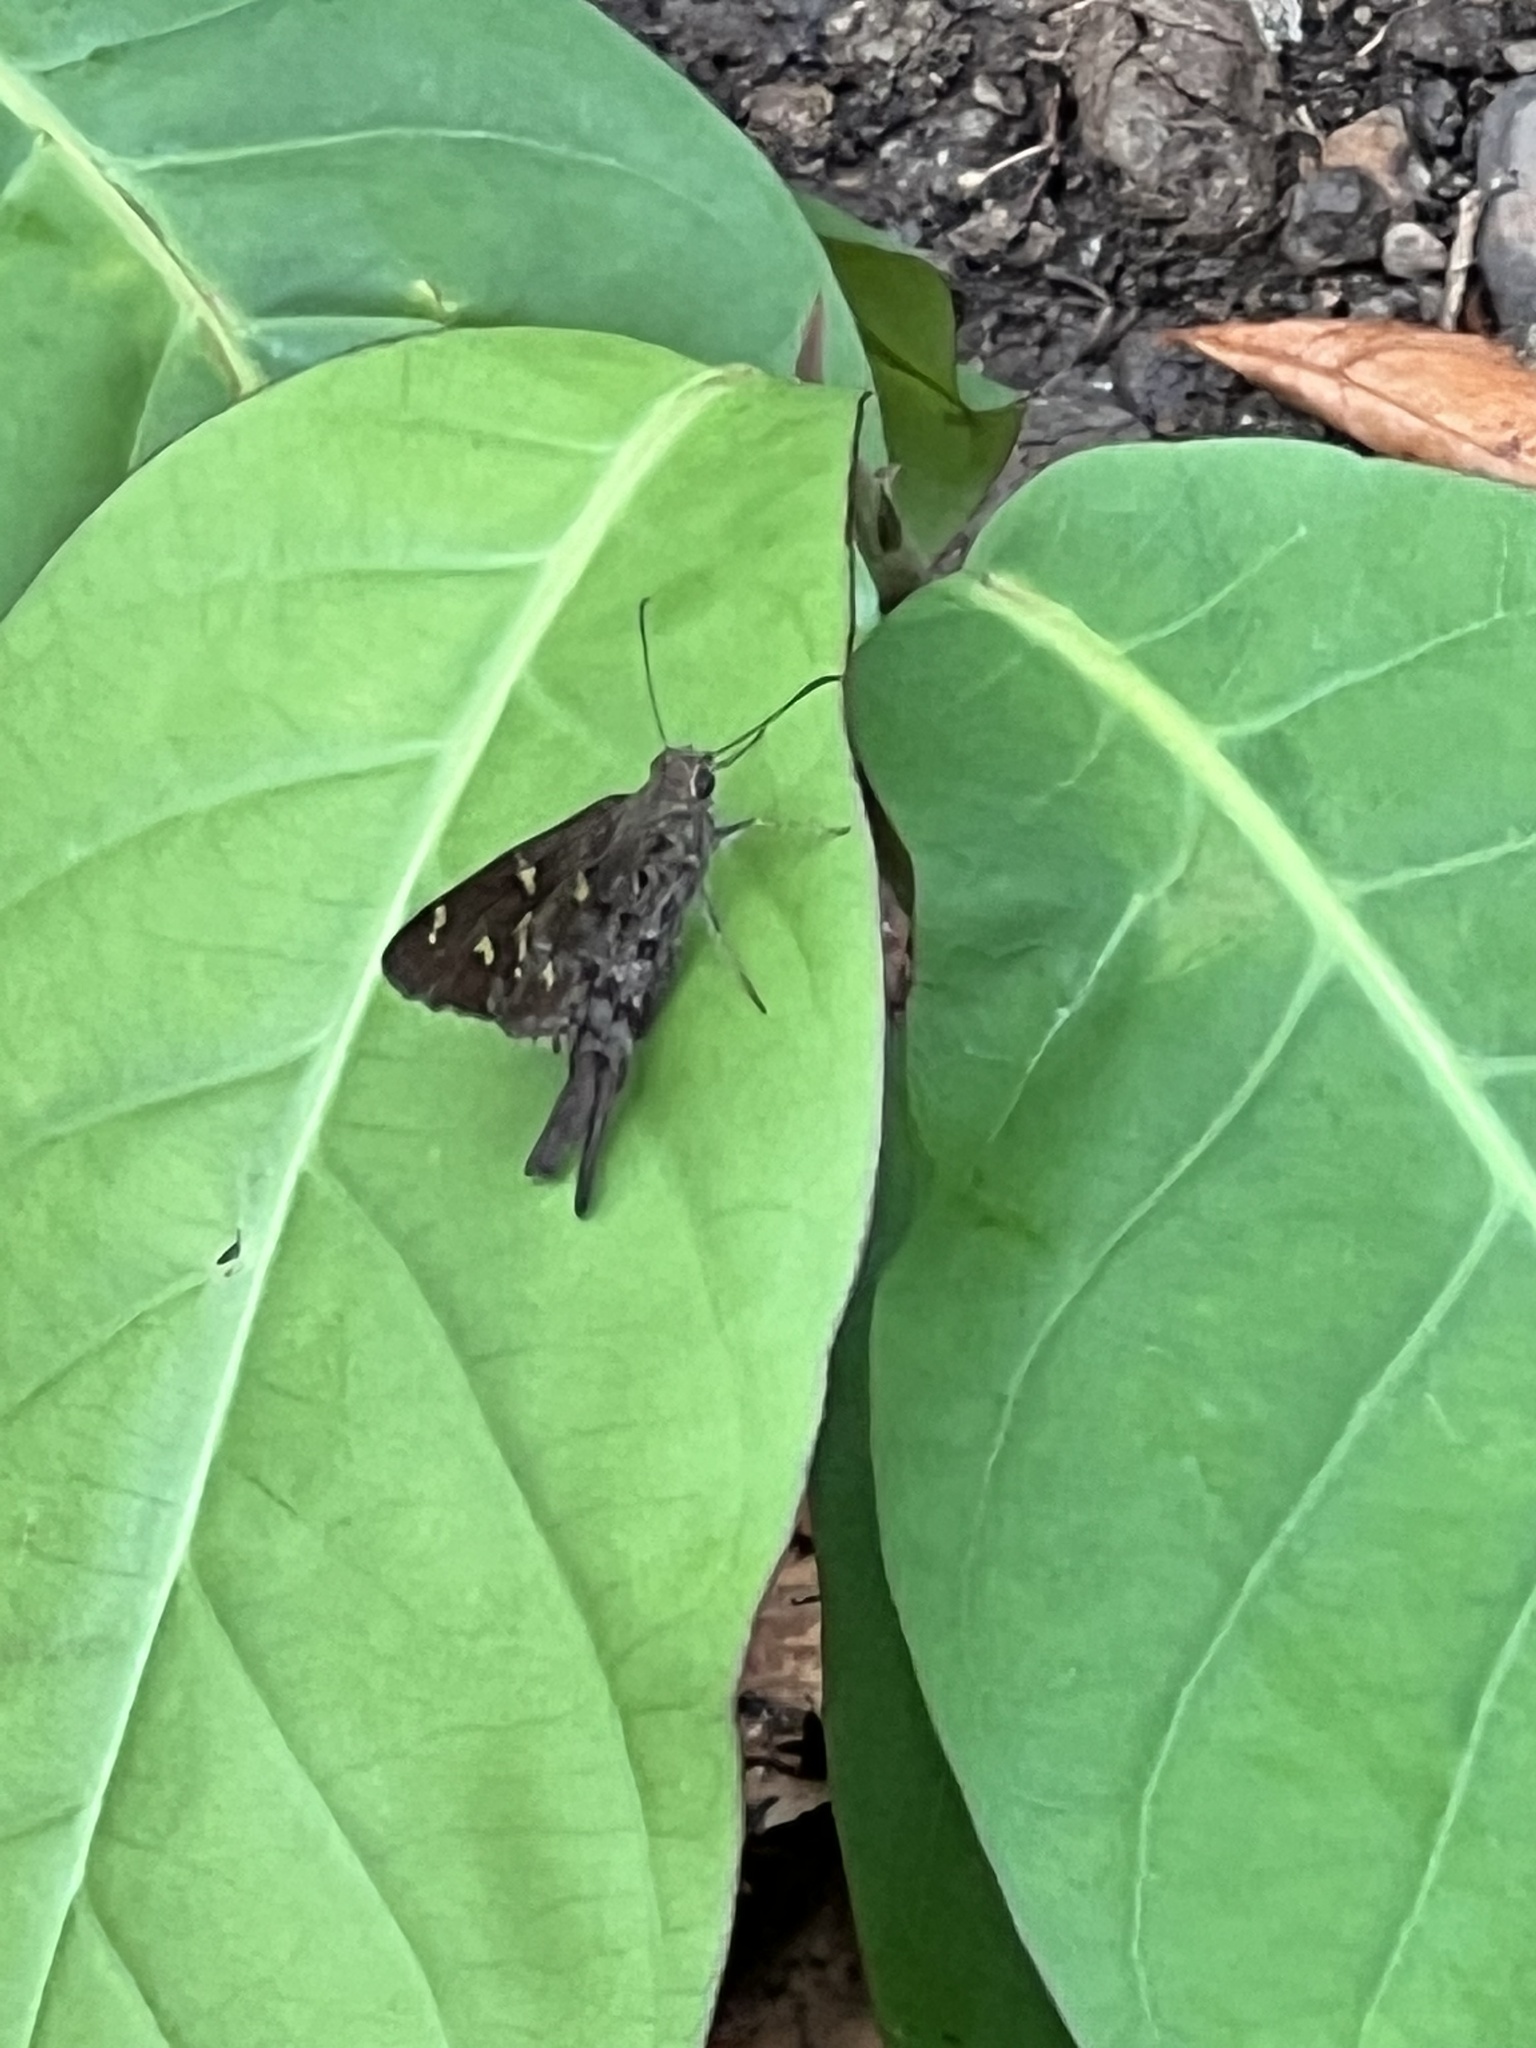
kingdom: Animalia
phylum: Arthropoda
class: Insecta
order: Lepidoptera
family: Hesperiidae
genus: Thorybes
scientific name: Thorybes
